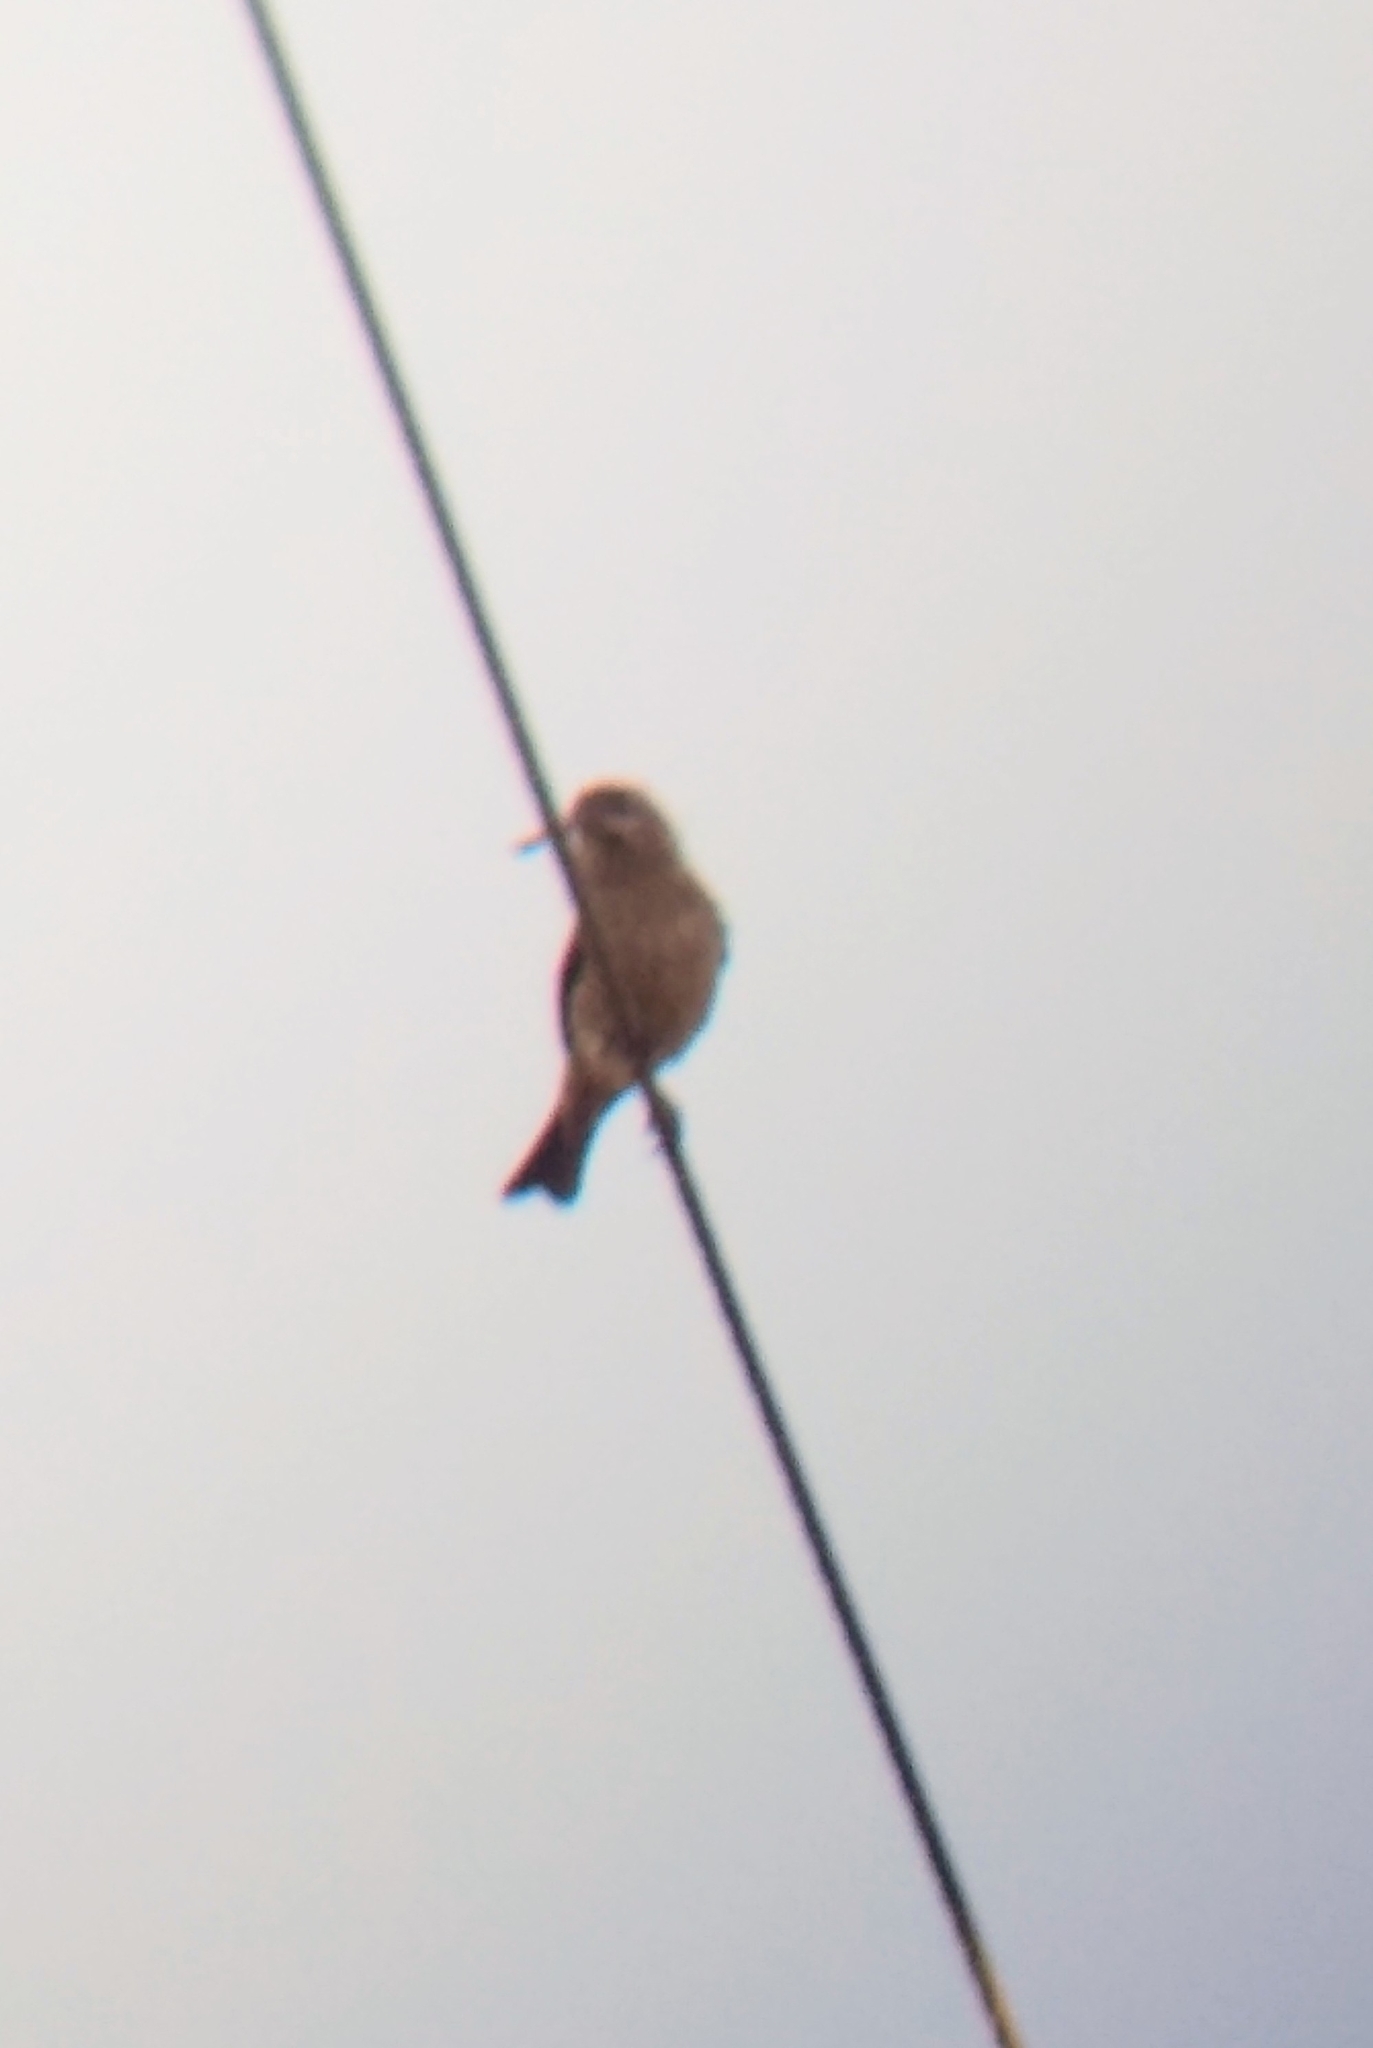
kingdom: Animalia
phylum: Chordata
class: Aves
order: Passeriformes
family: Fringillidae
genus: Haemorhous
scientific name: Haemorhous mexicanus
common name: House finch
